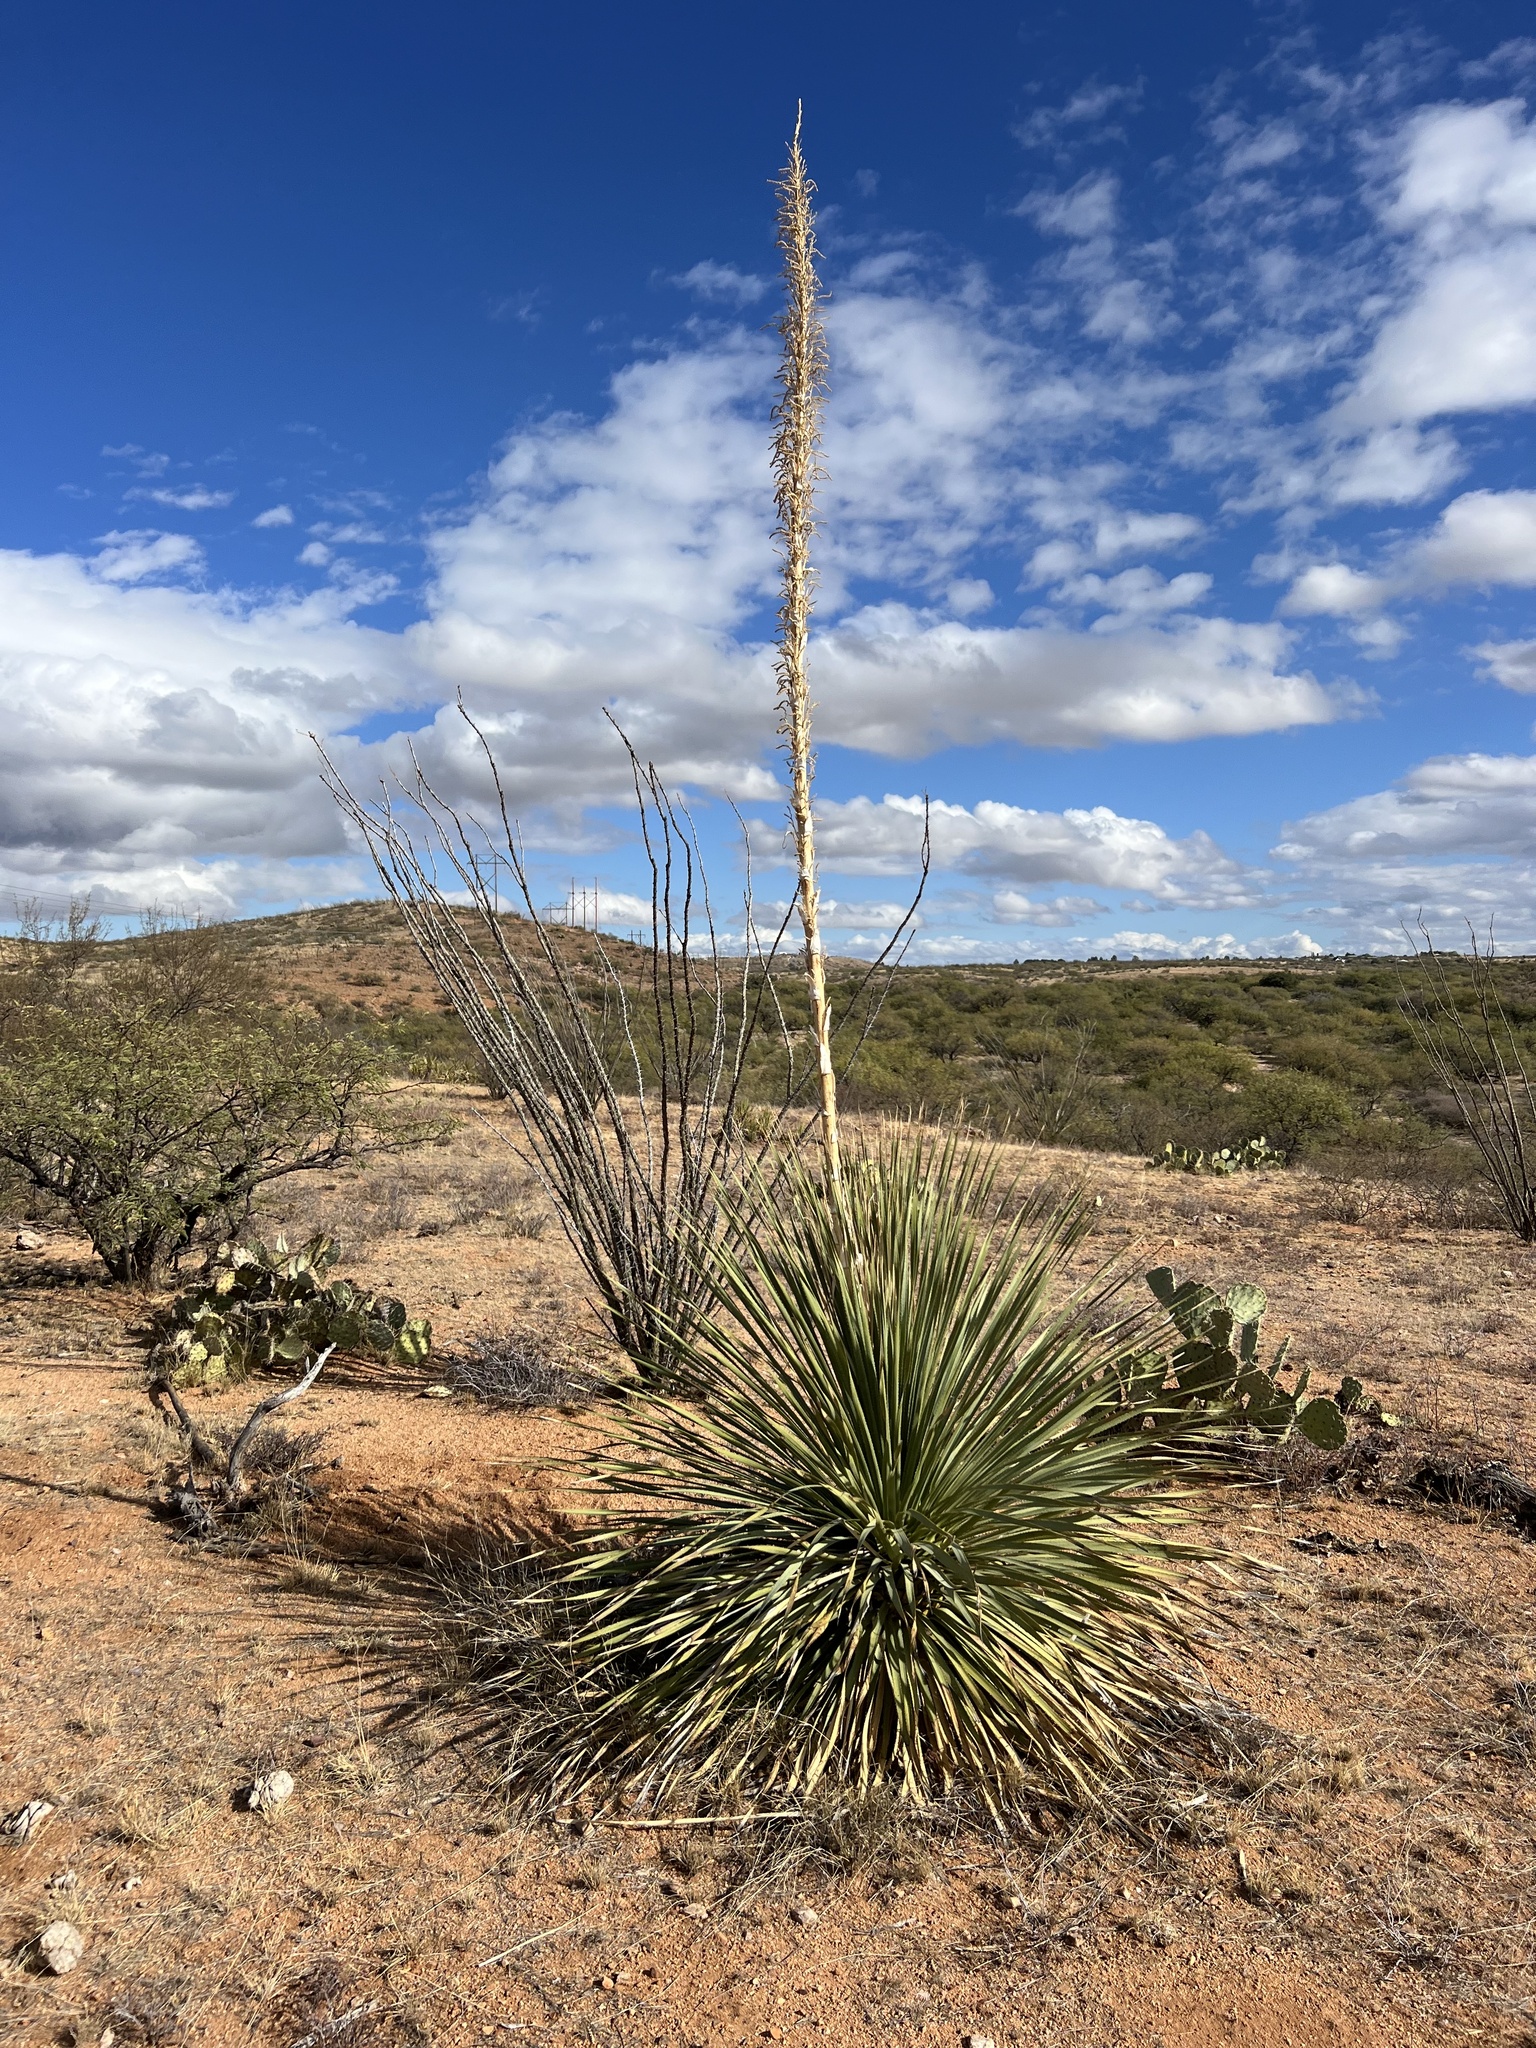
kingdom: Plantae
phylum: Tracheophyta
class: Liliopsida
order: Asparagales
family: Asparagaceae
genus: Dasylirion
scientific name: Dasylirion wheeleri
